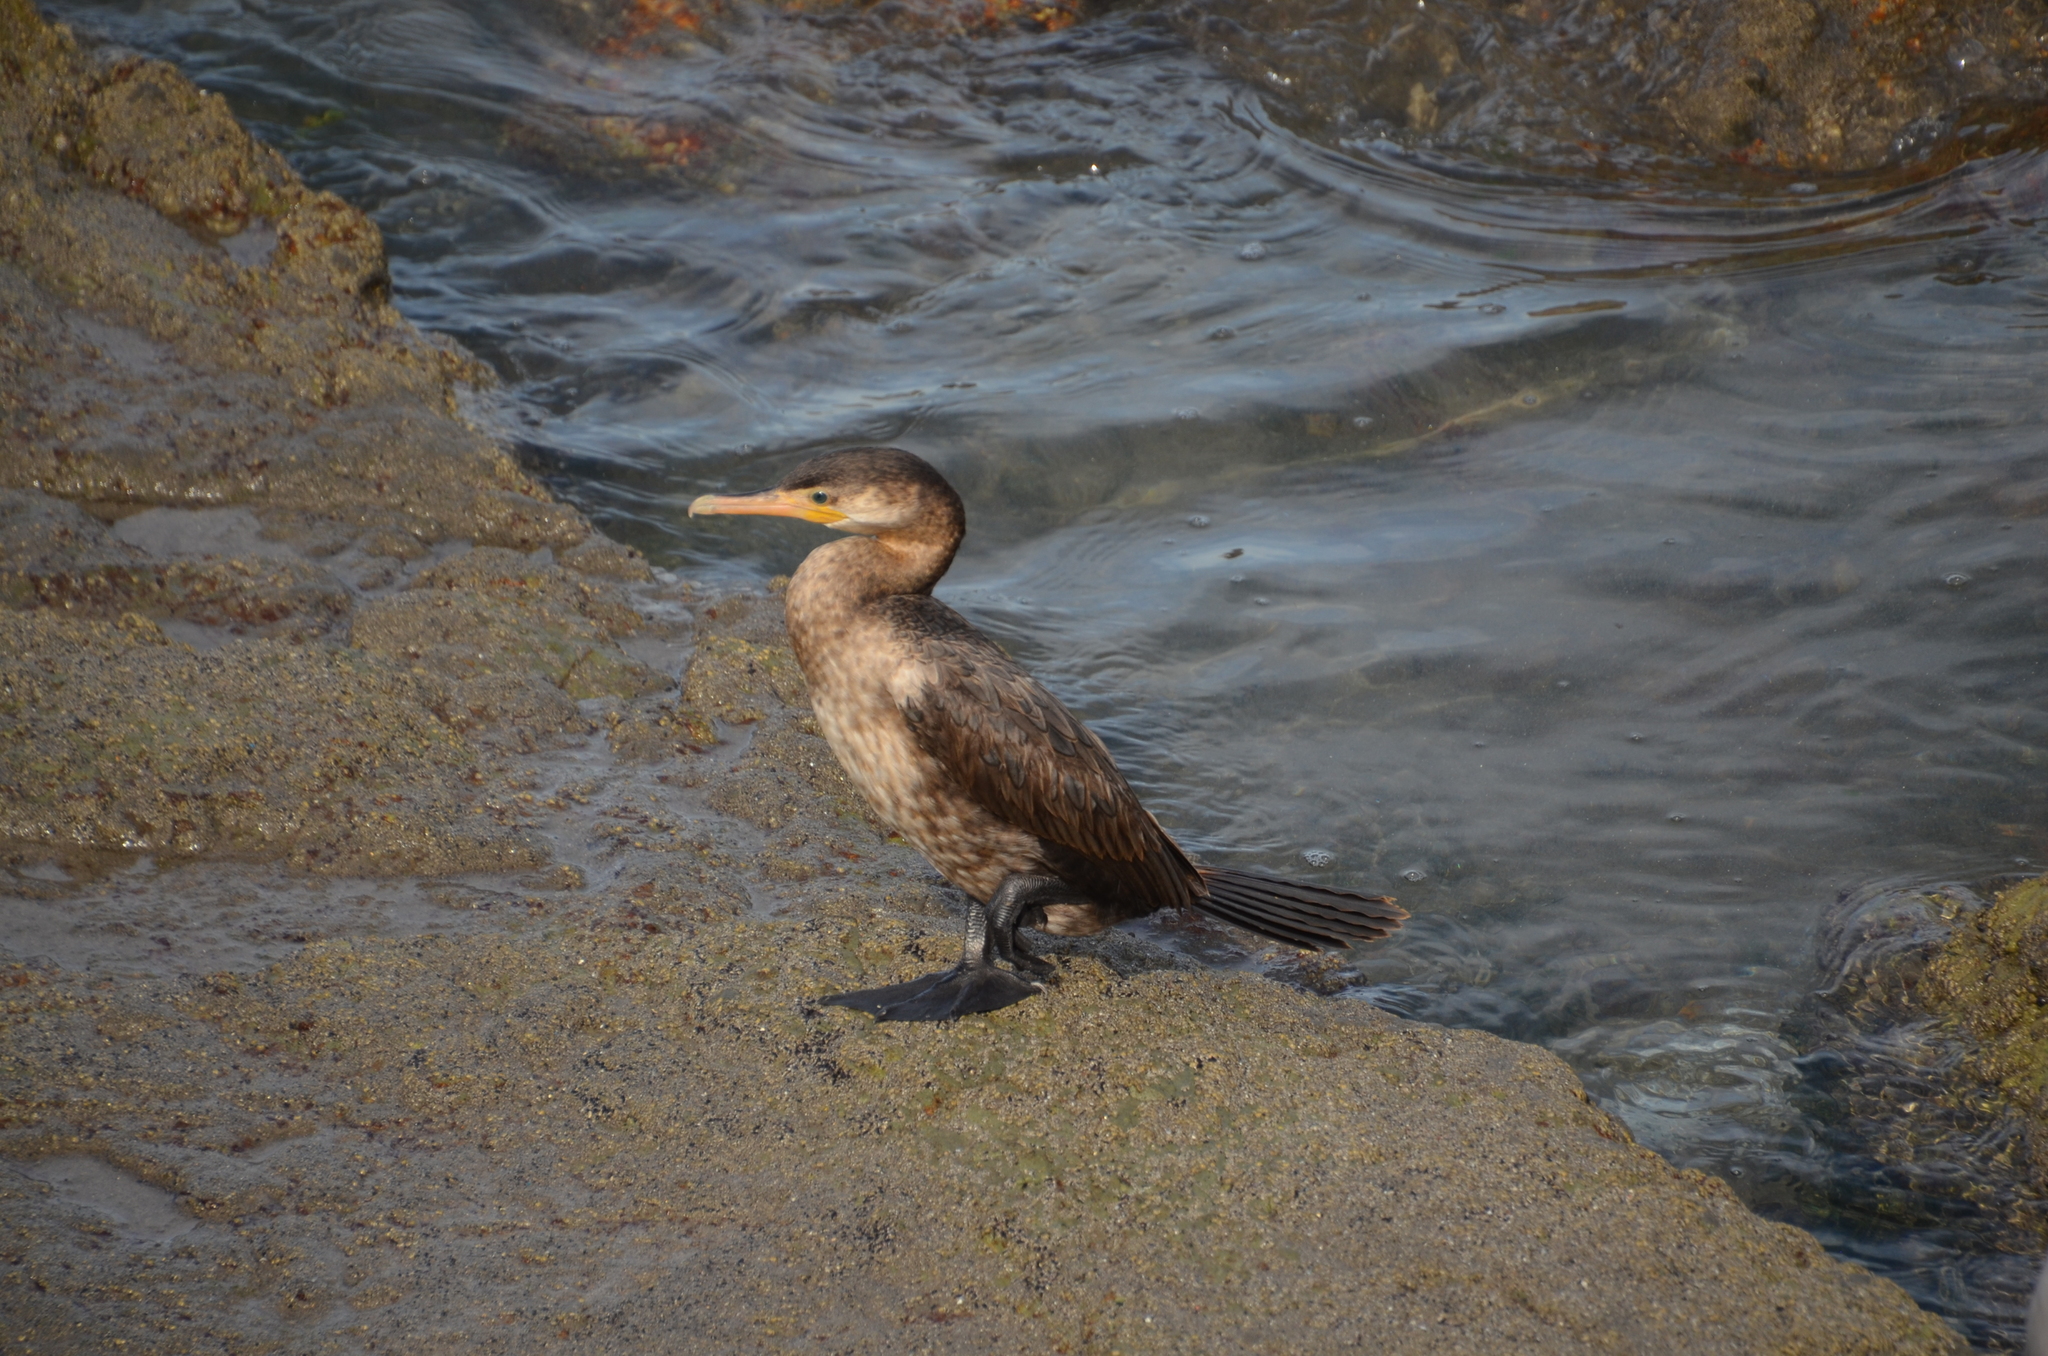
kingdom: Animalia
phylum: Chordata
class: Aves
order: Suliformes
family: Phalacrocoracidae
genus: Phalacrocorax
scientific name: Phalacrocorax brasilianus
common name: Neotropic cormorant
